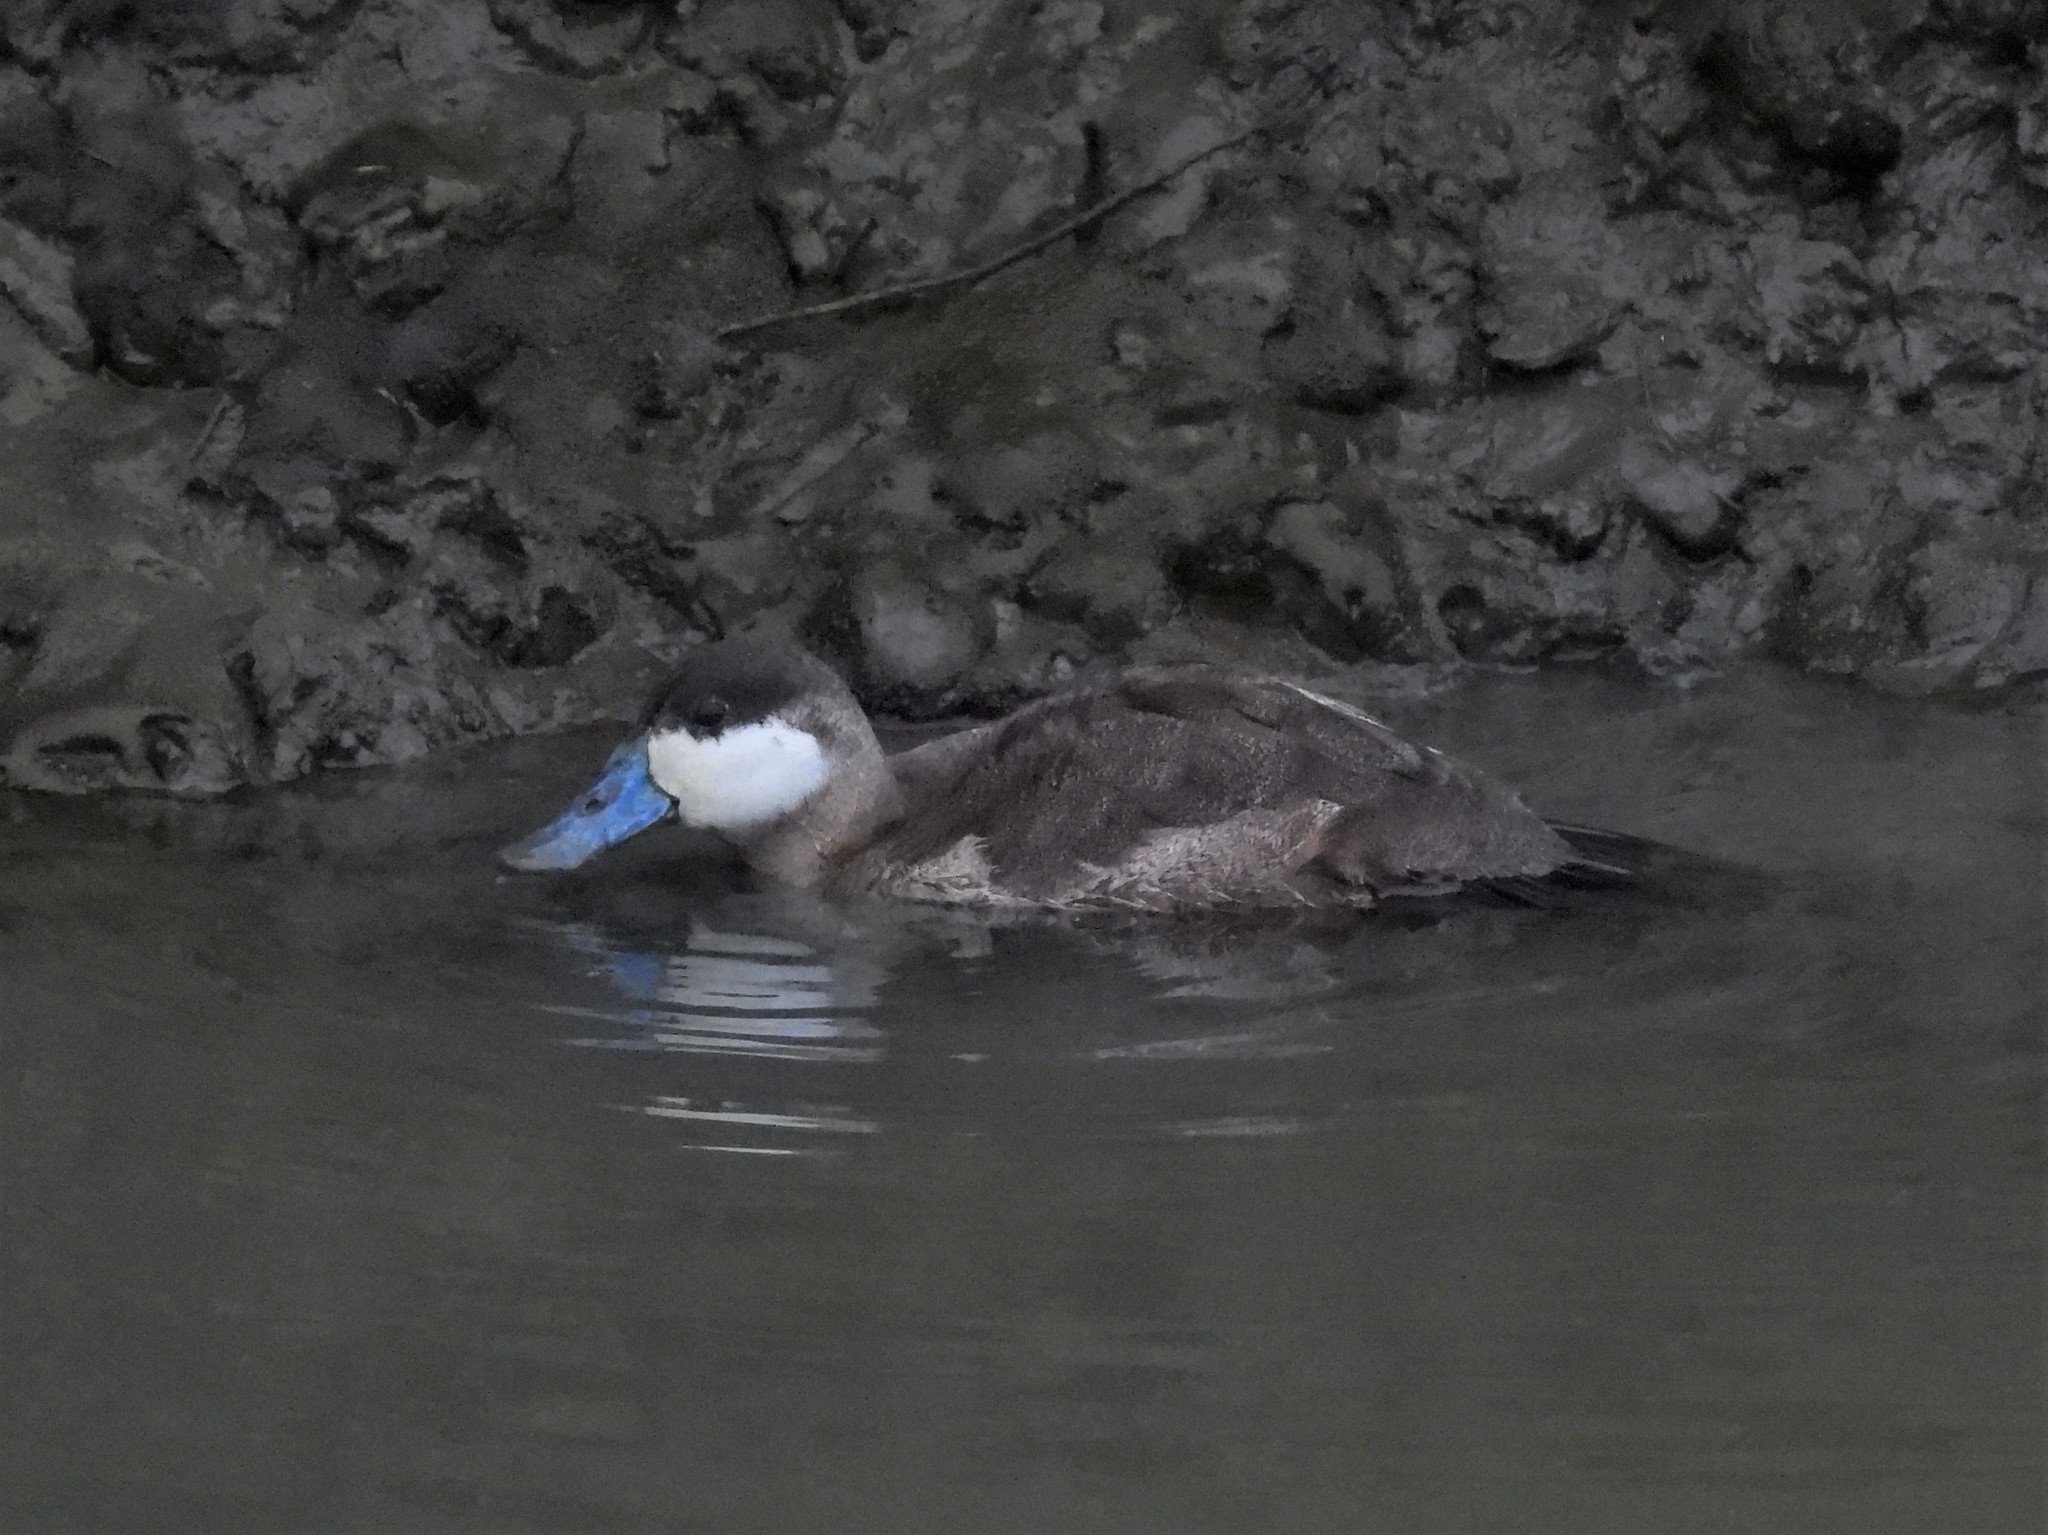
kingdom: Animalia
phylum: Chordata
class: Aves
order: Anseriformes
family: Anatidae
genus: Oxyura
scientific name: Oxyura jamaicensis
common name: Ruddy duck
